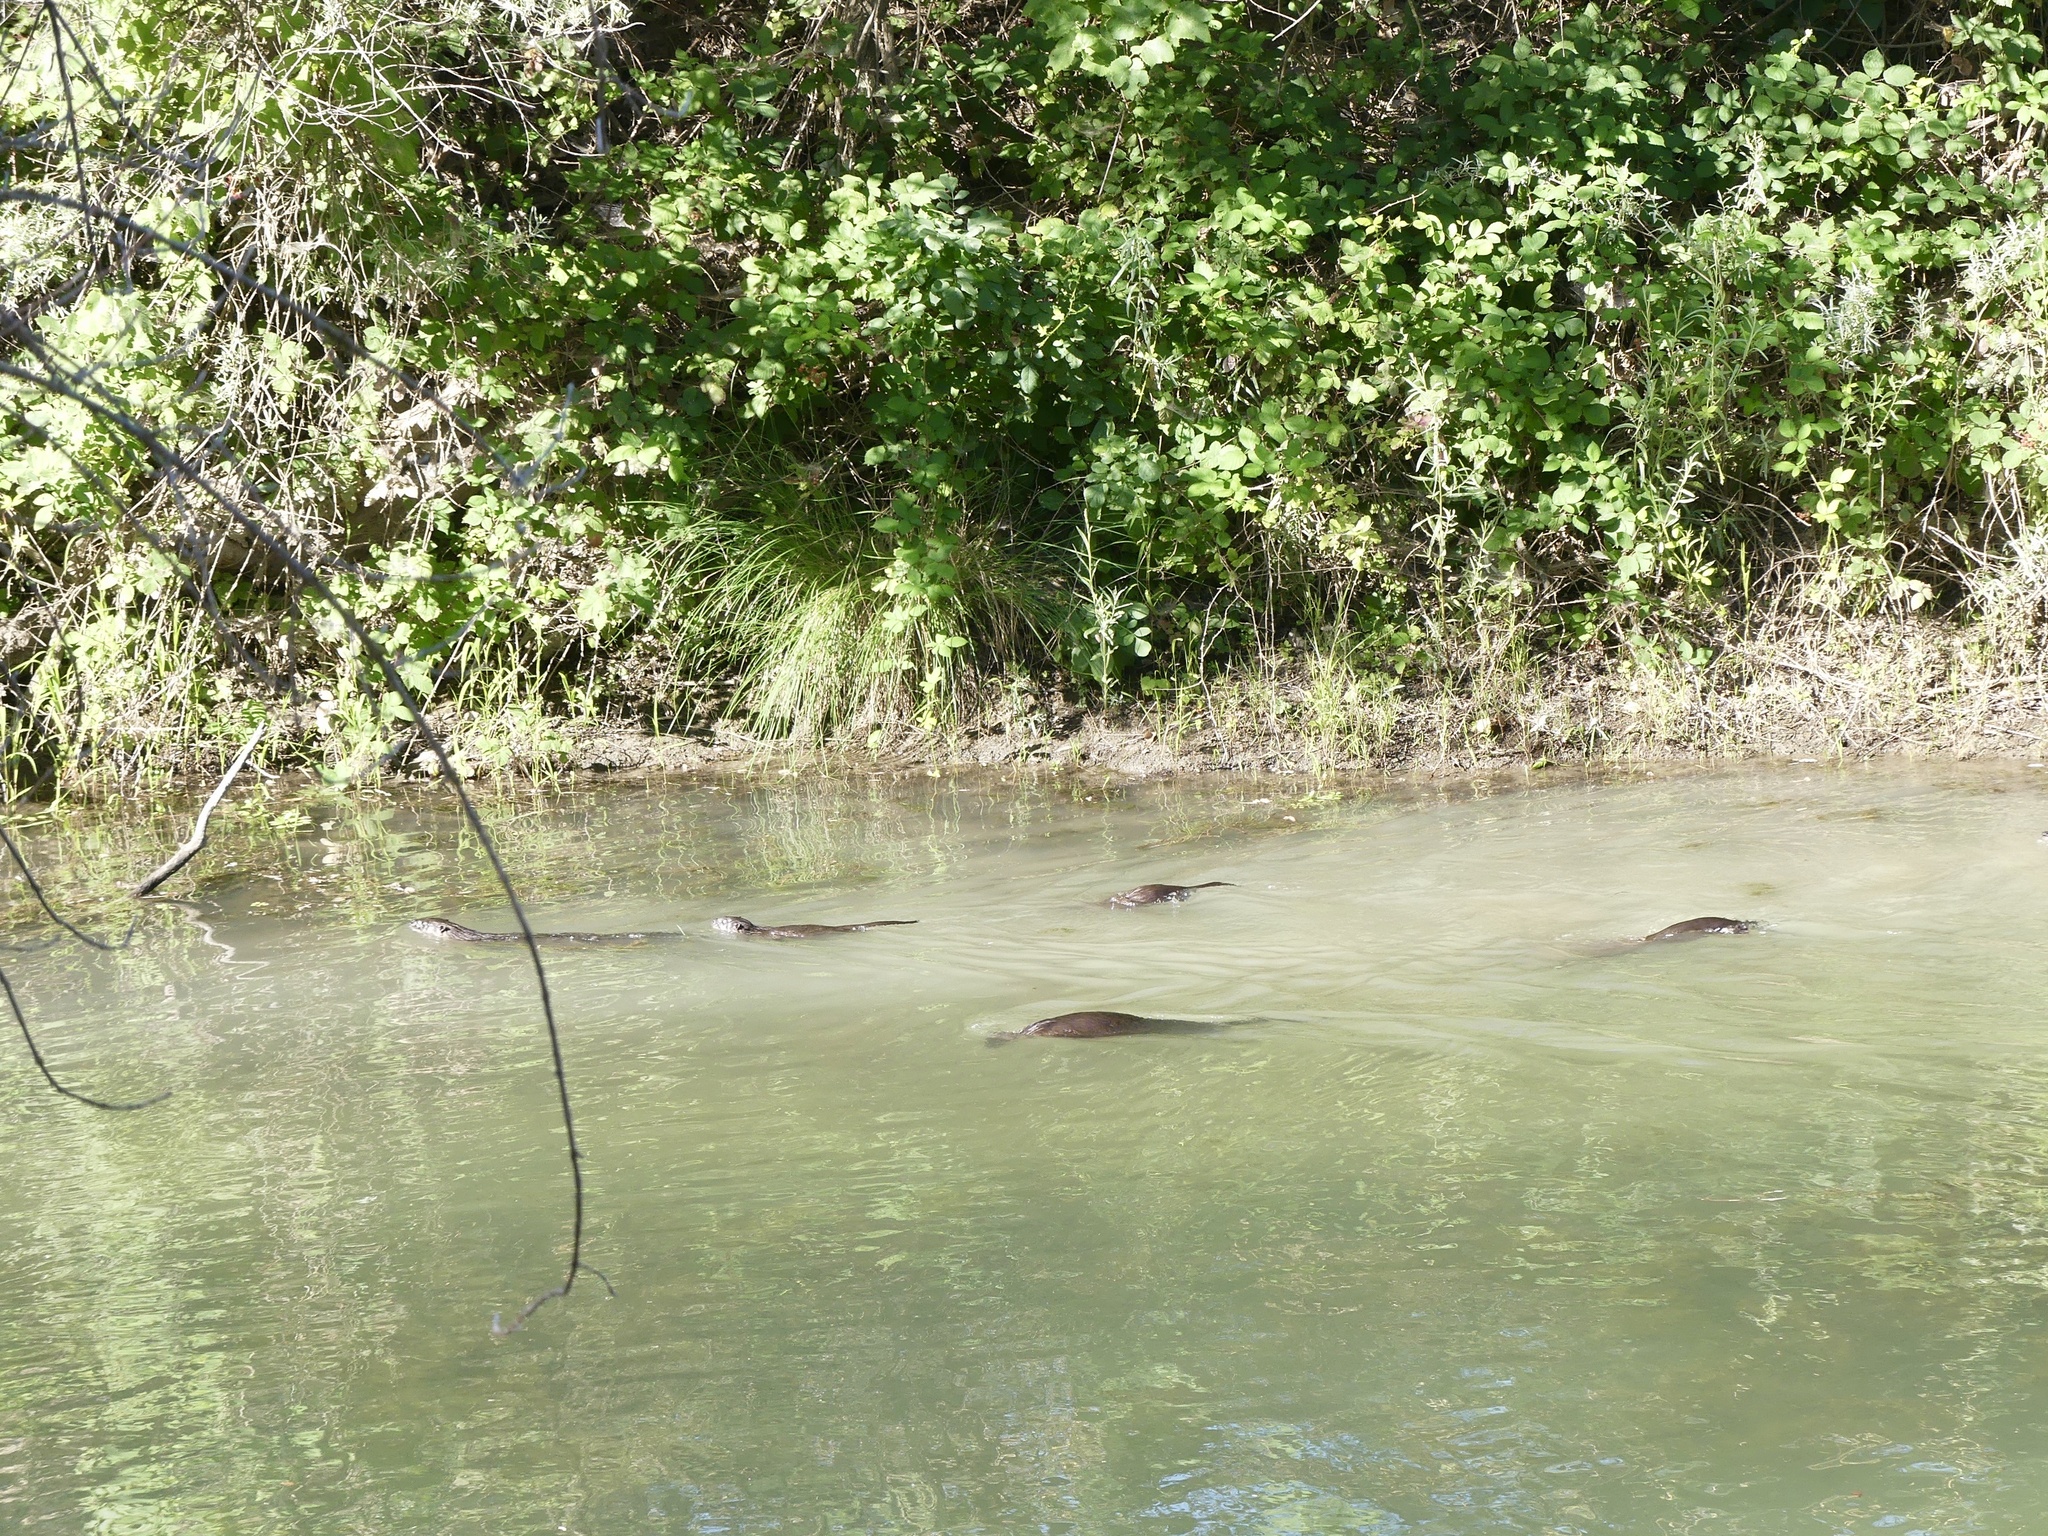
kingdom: Animalia
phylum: Chordata
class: Mammalia
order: Carnivora
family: Mustelidae
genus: Lontra
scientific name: Lontra canadensis
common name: North american river otter
